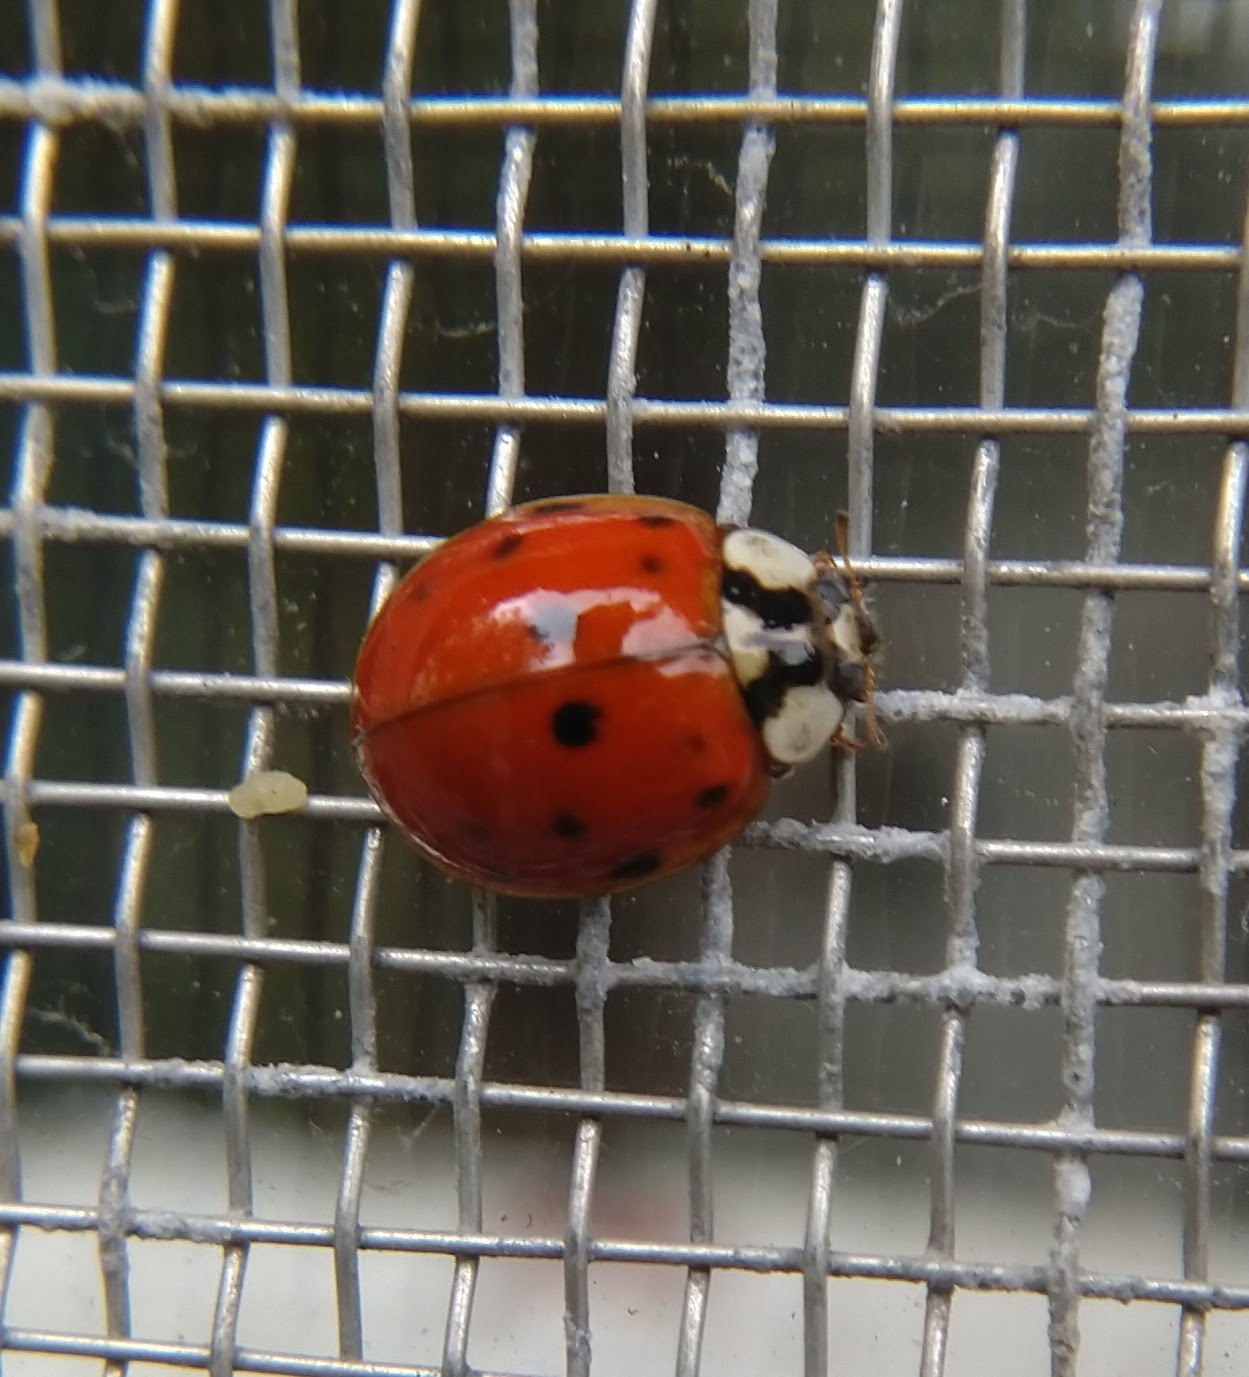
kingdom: Animalia
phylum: Arthropoda
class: Insecta
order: Coleoptera
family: Coccinellidae
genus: Harmonia
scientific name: Harmonia axyridis
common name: Harlequin ladybird
